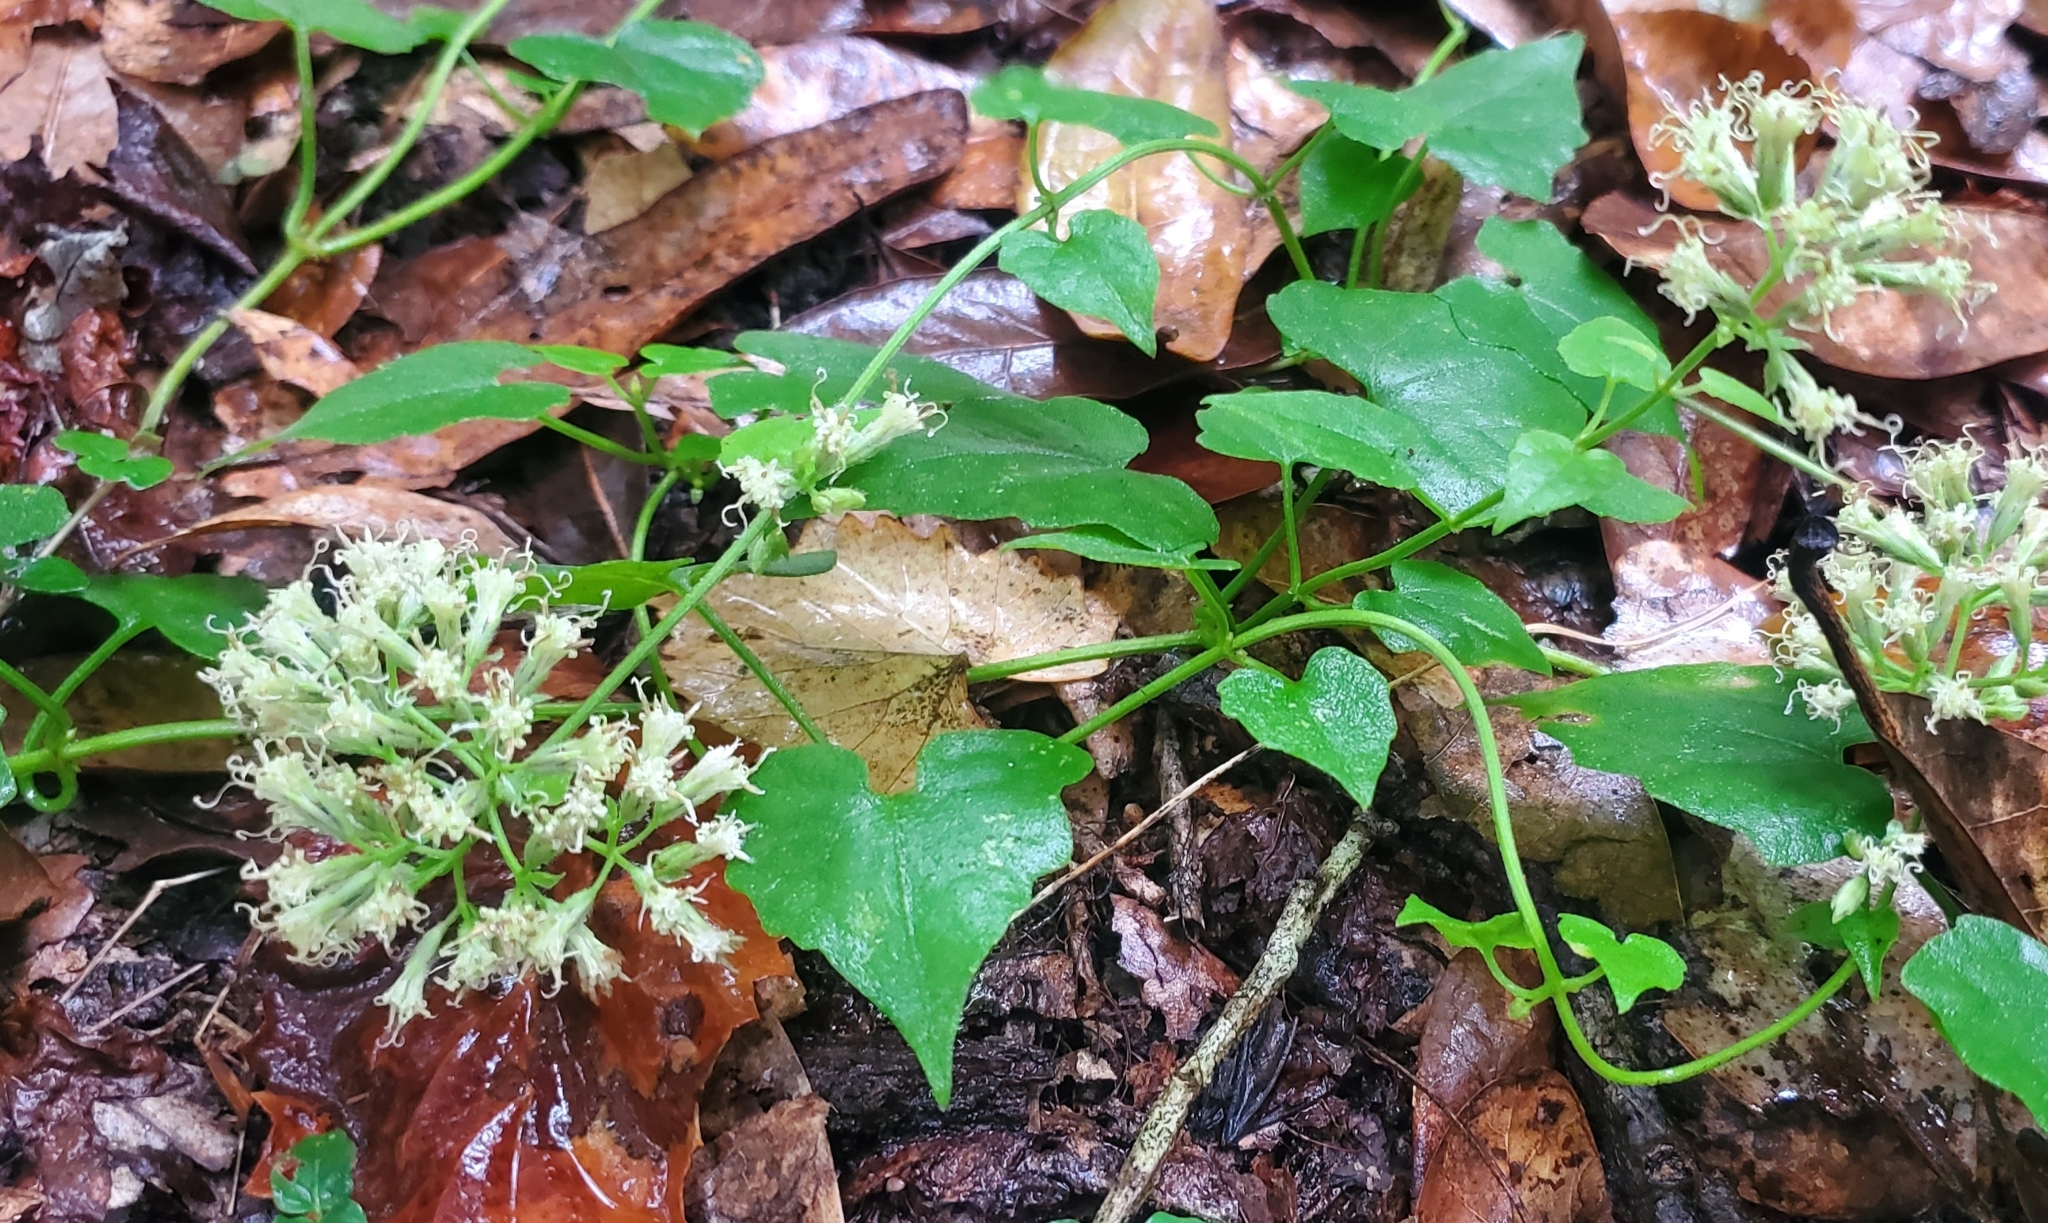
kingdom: Plantae
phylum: Tracheophyta
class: Magnoliopsida
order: Asterales
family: Asteraceae
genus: Mikania
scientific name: Mikania scandens
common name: Climbing hempvine
